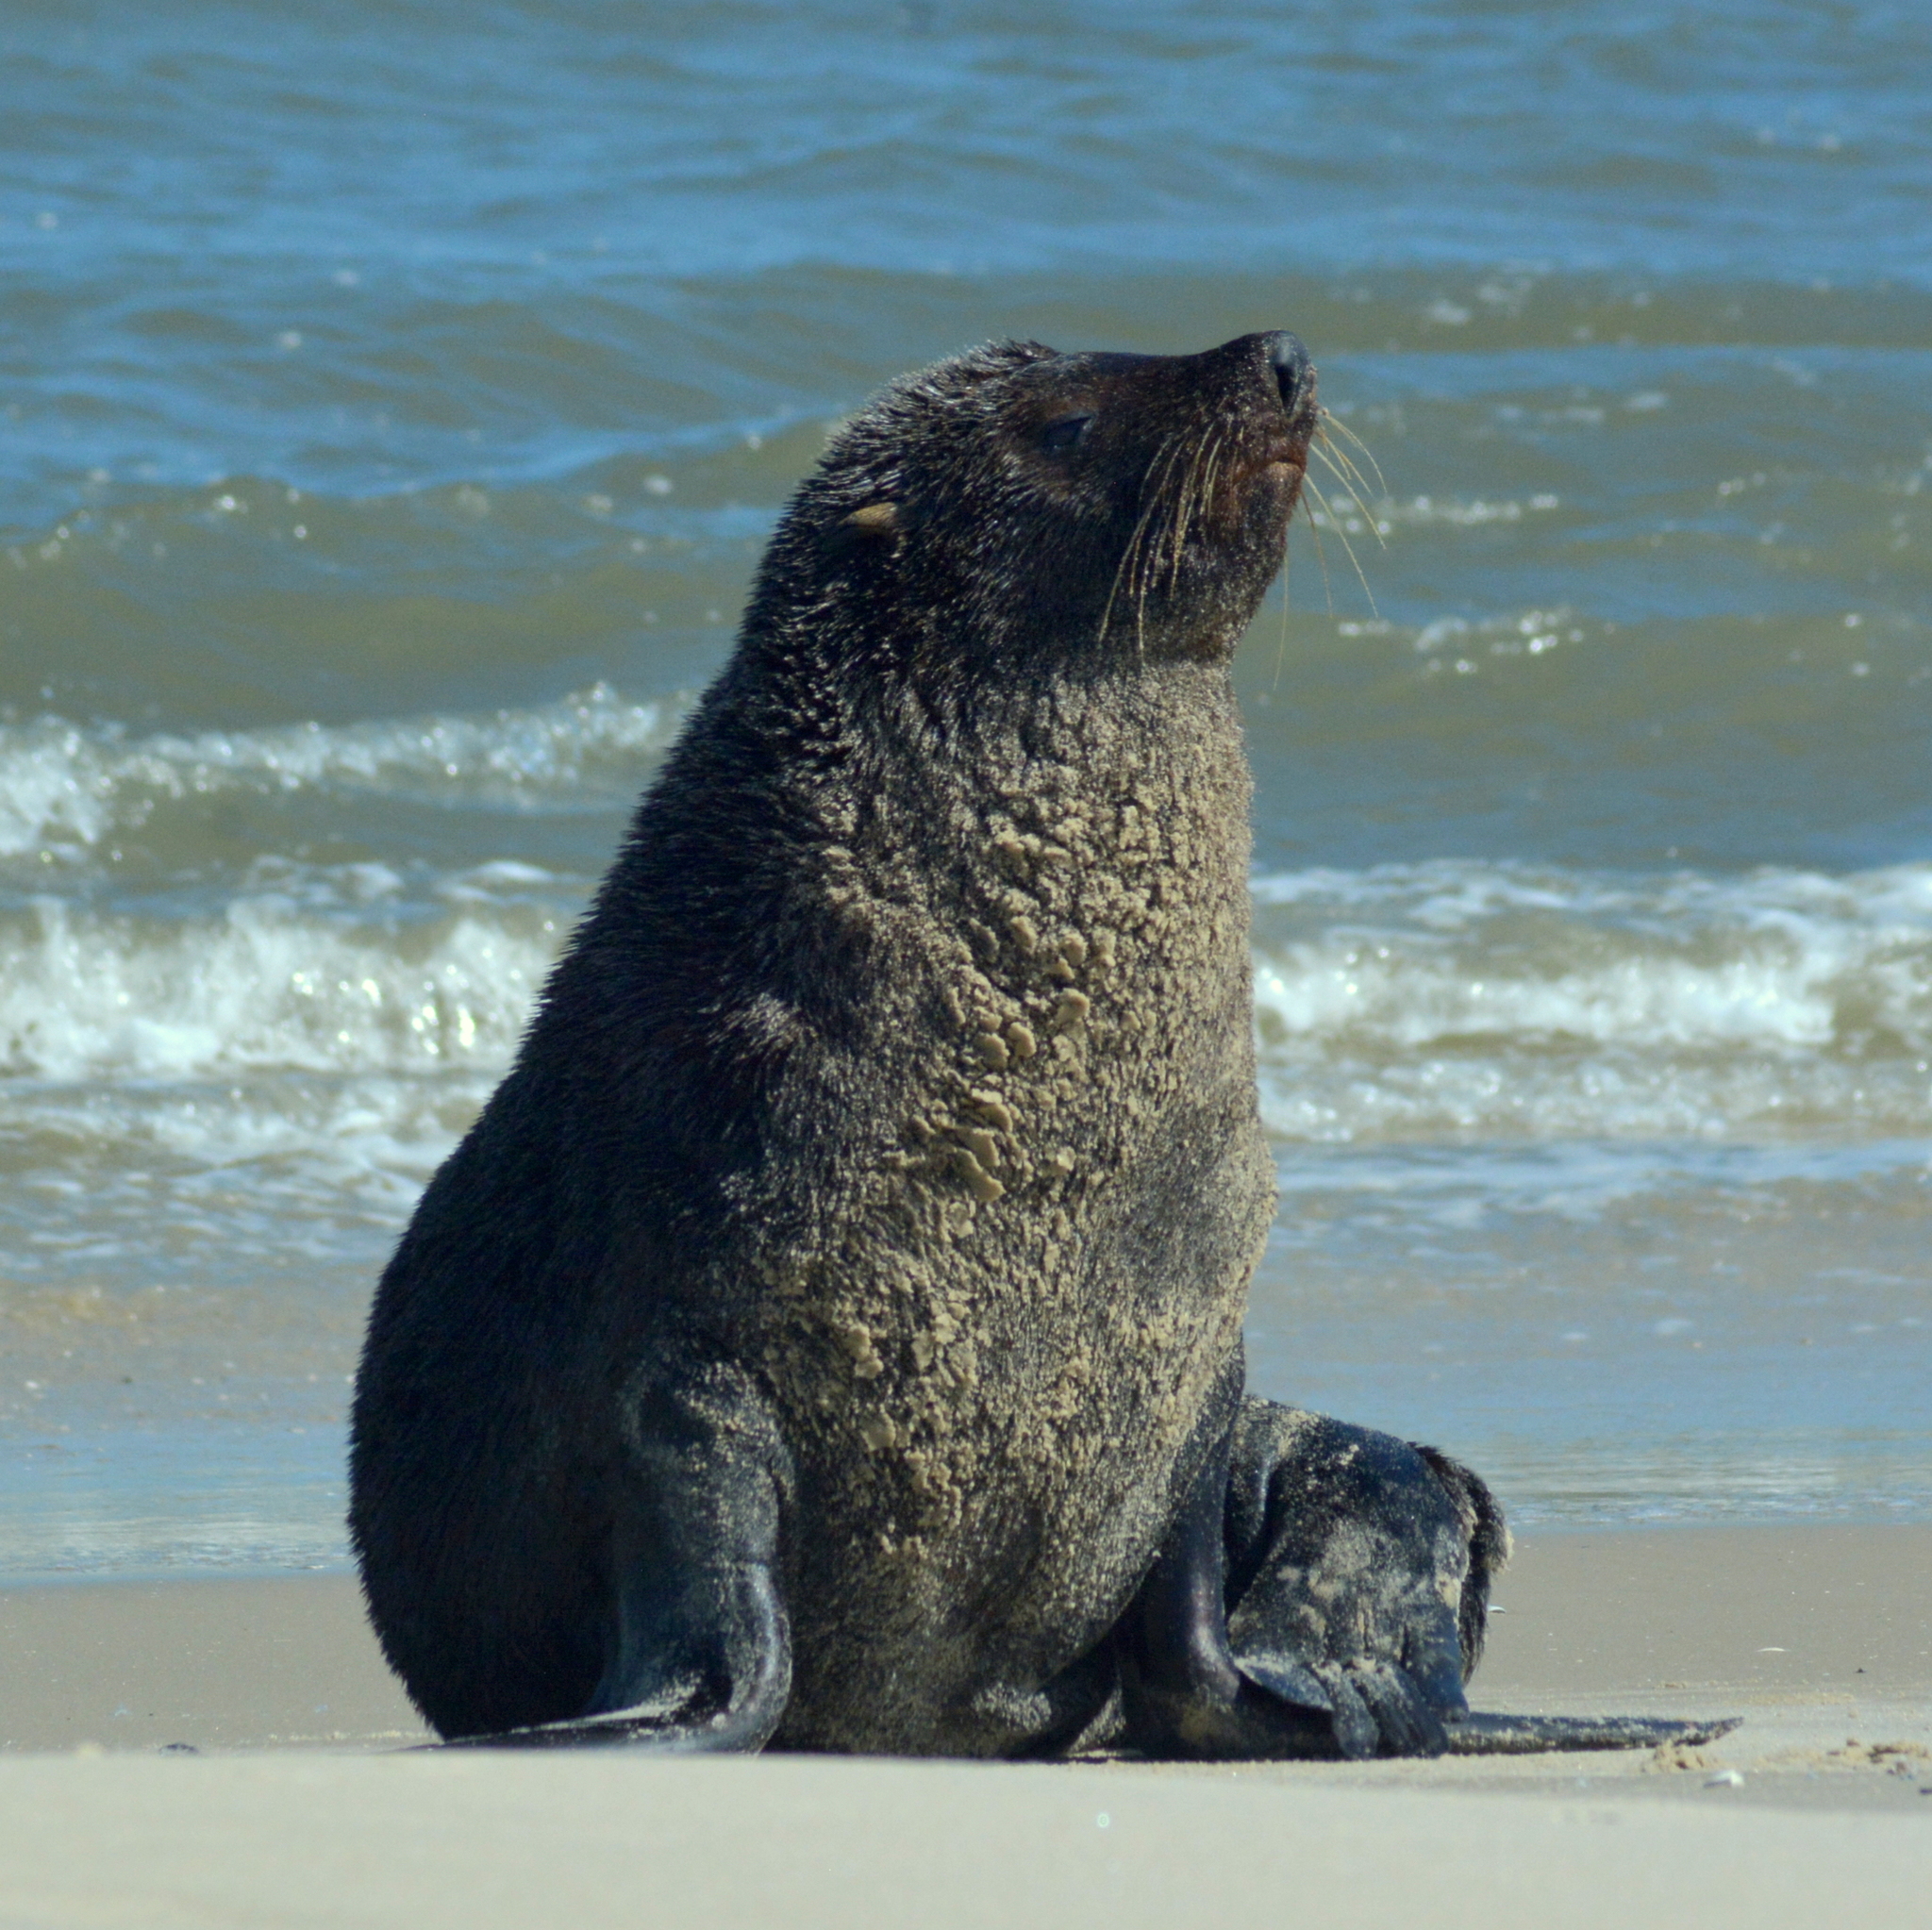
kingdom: Animalia
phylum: Chordata
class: Mammalia
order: Carnivora
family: Otariidae
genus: Arctocephalus
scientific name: Arctocephalus australis
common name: South american fur seal
